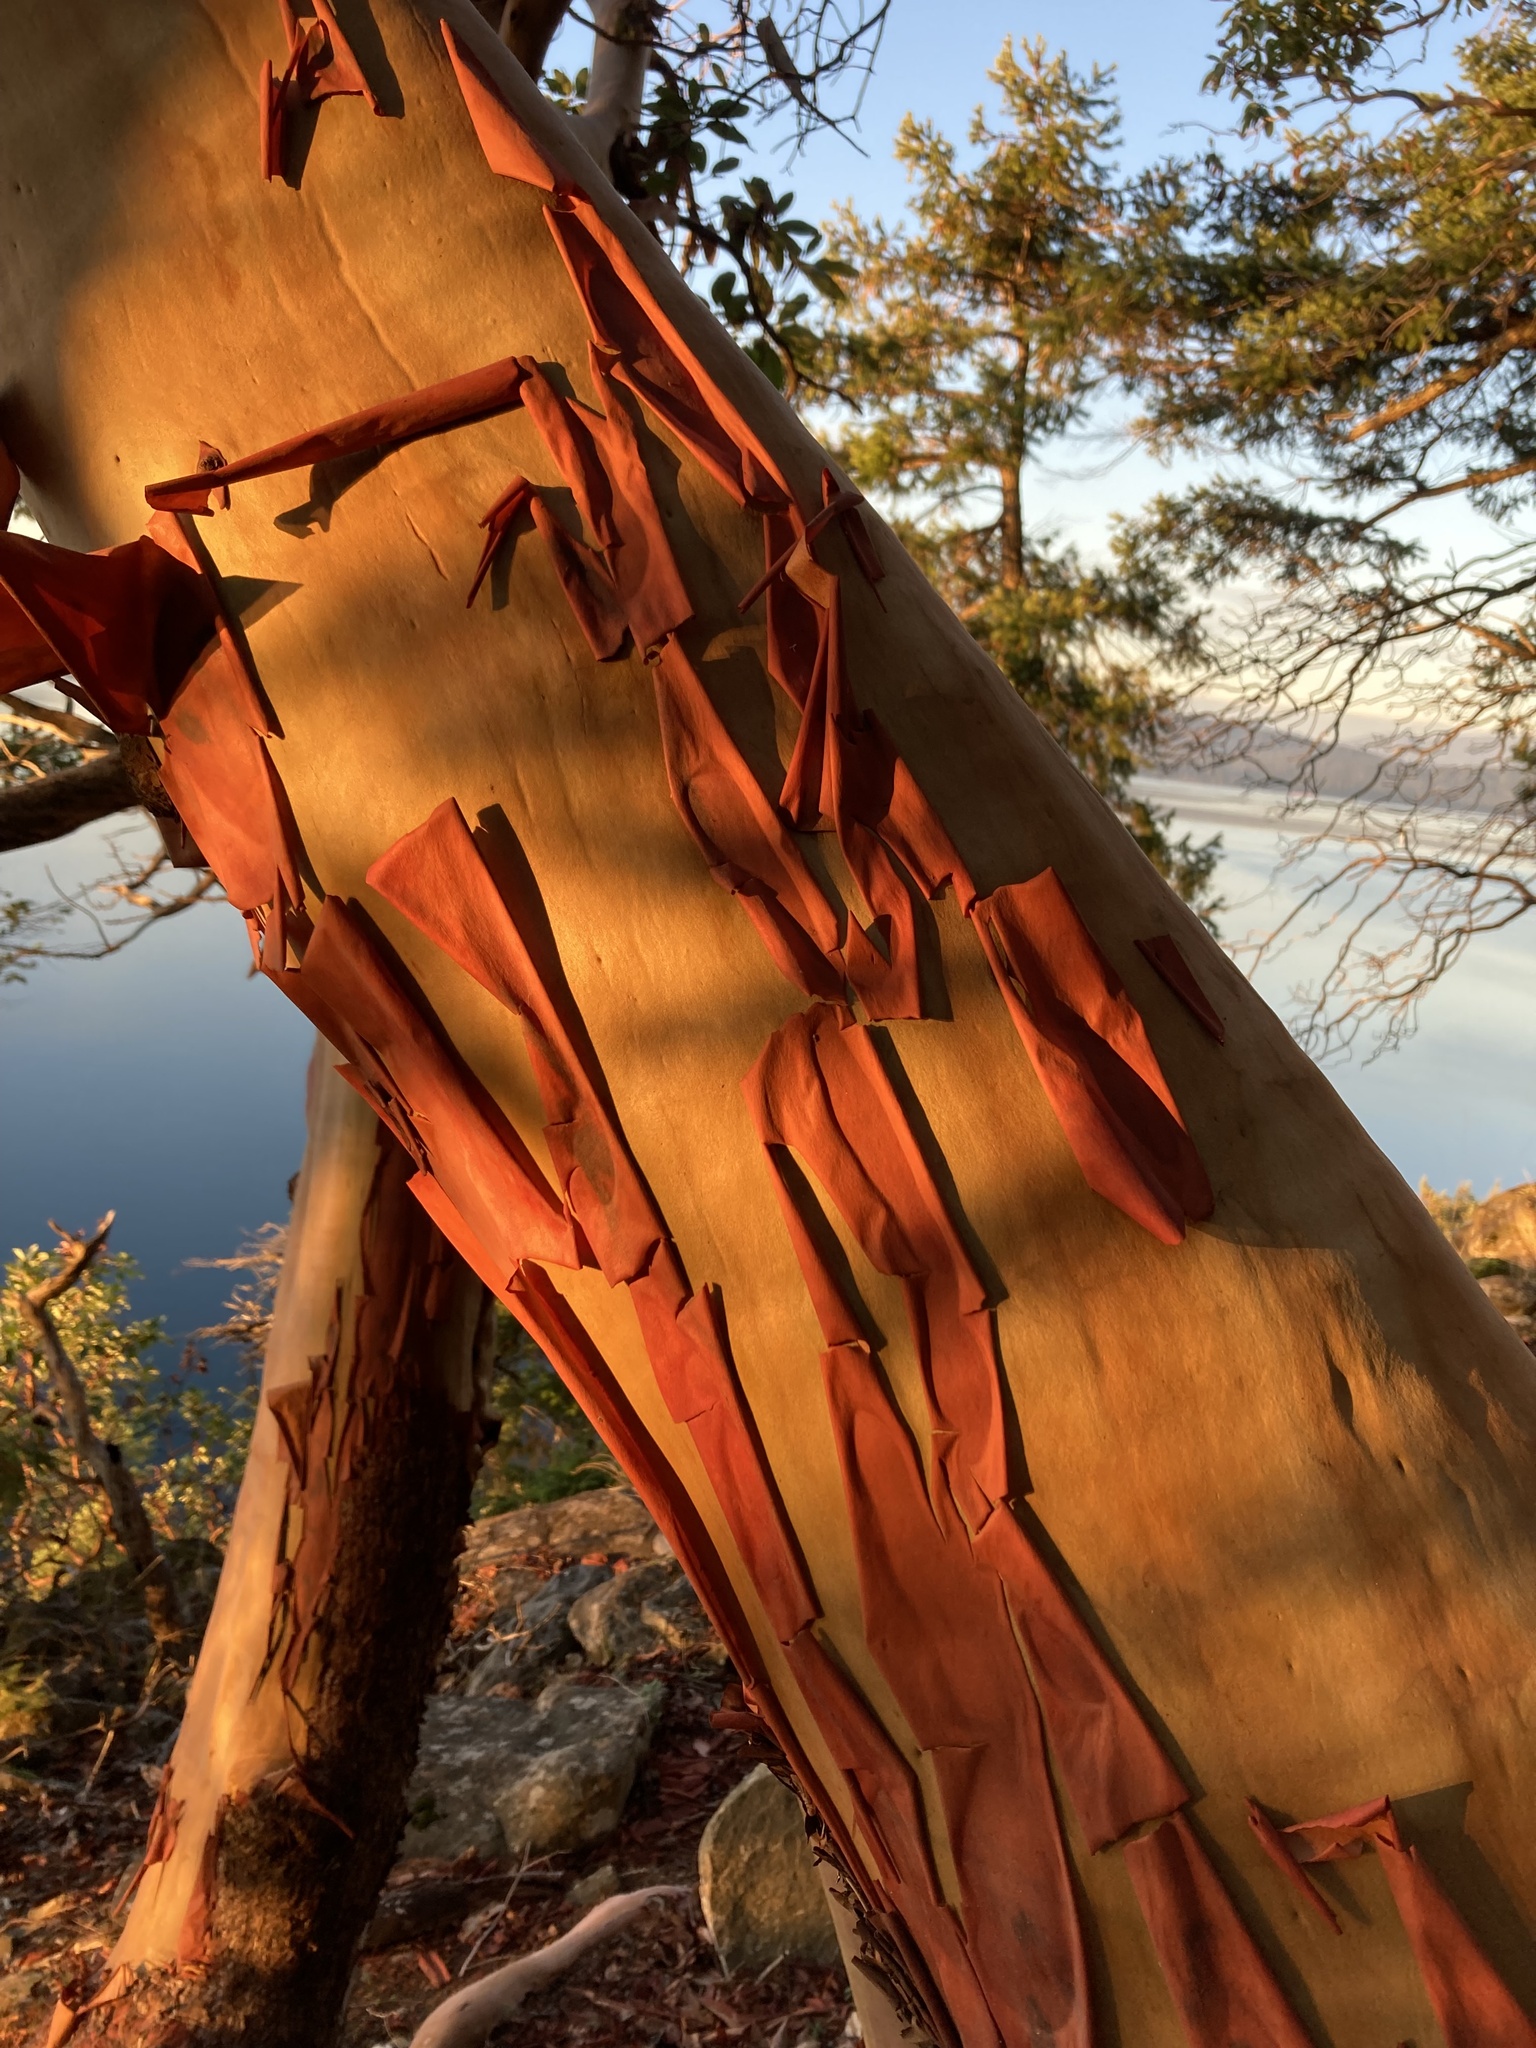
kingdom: Plantae
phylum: Tracheophyta
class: Magnoliopsida
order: Ericales
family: Ericaceae
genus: Arbutus
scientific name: Arbutus menziesii
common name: Pacific madrone
